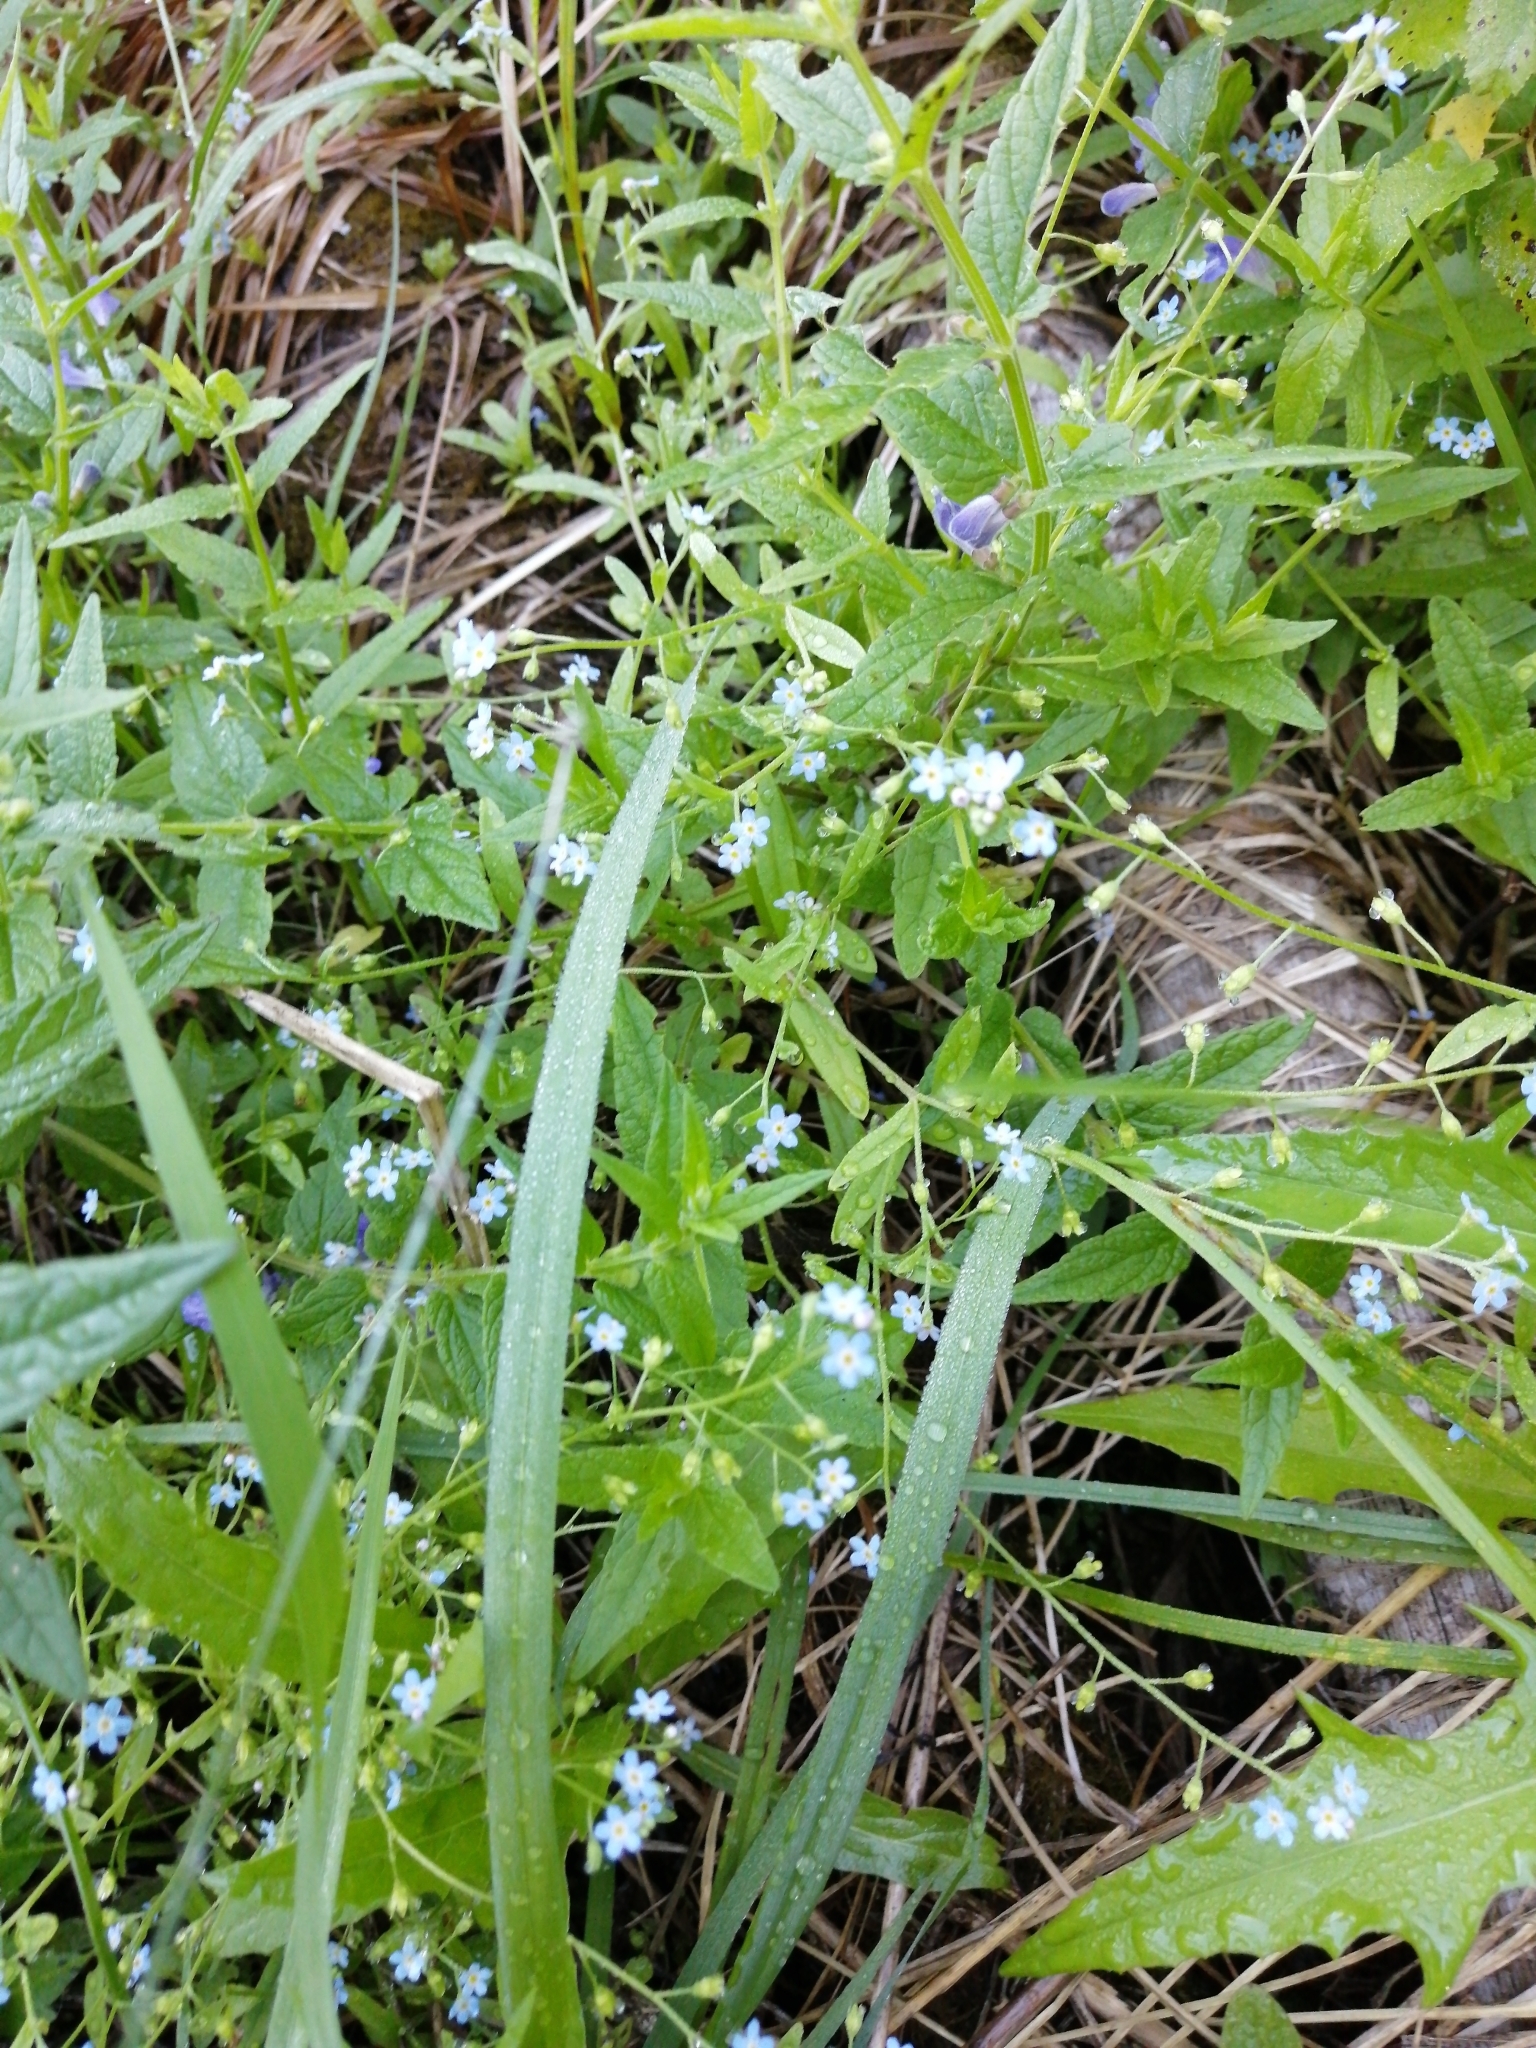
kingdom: Plantae
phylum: Tracheophyta
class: Magnoliopsida
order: Boraginales
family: Boraginaceae
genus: Myosotis
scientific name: Myosotis scorpioides
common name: Water forget-me-not
